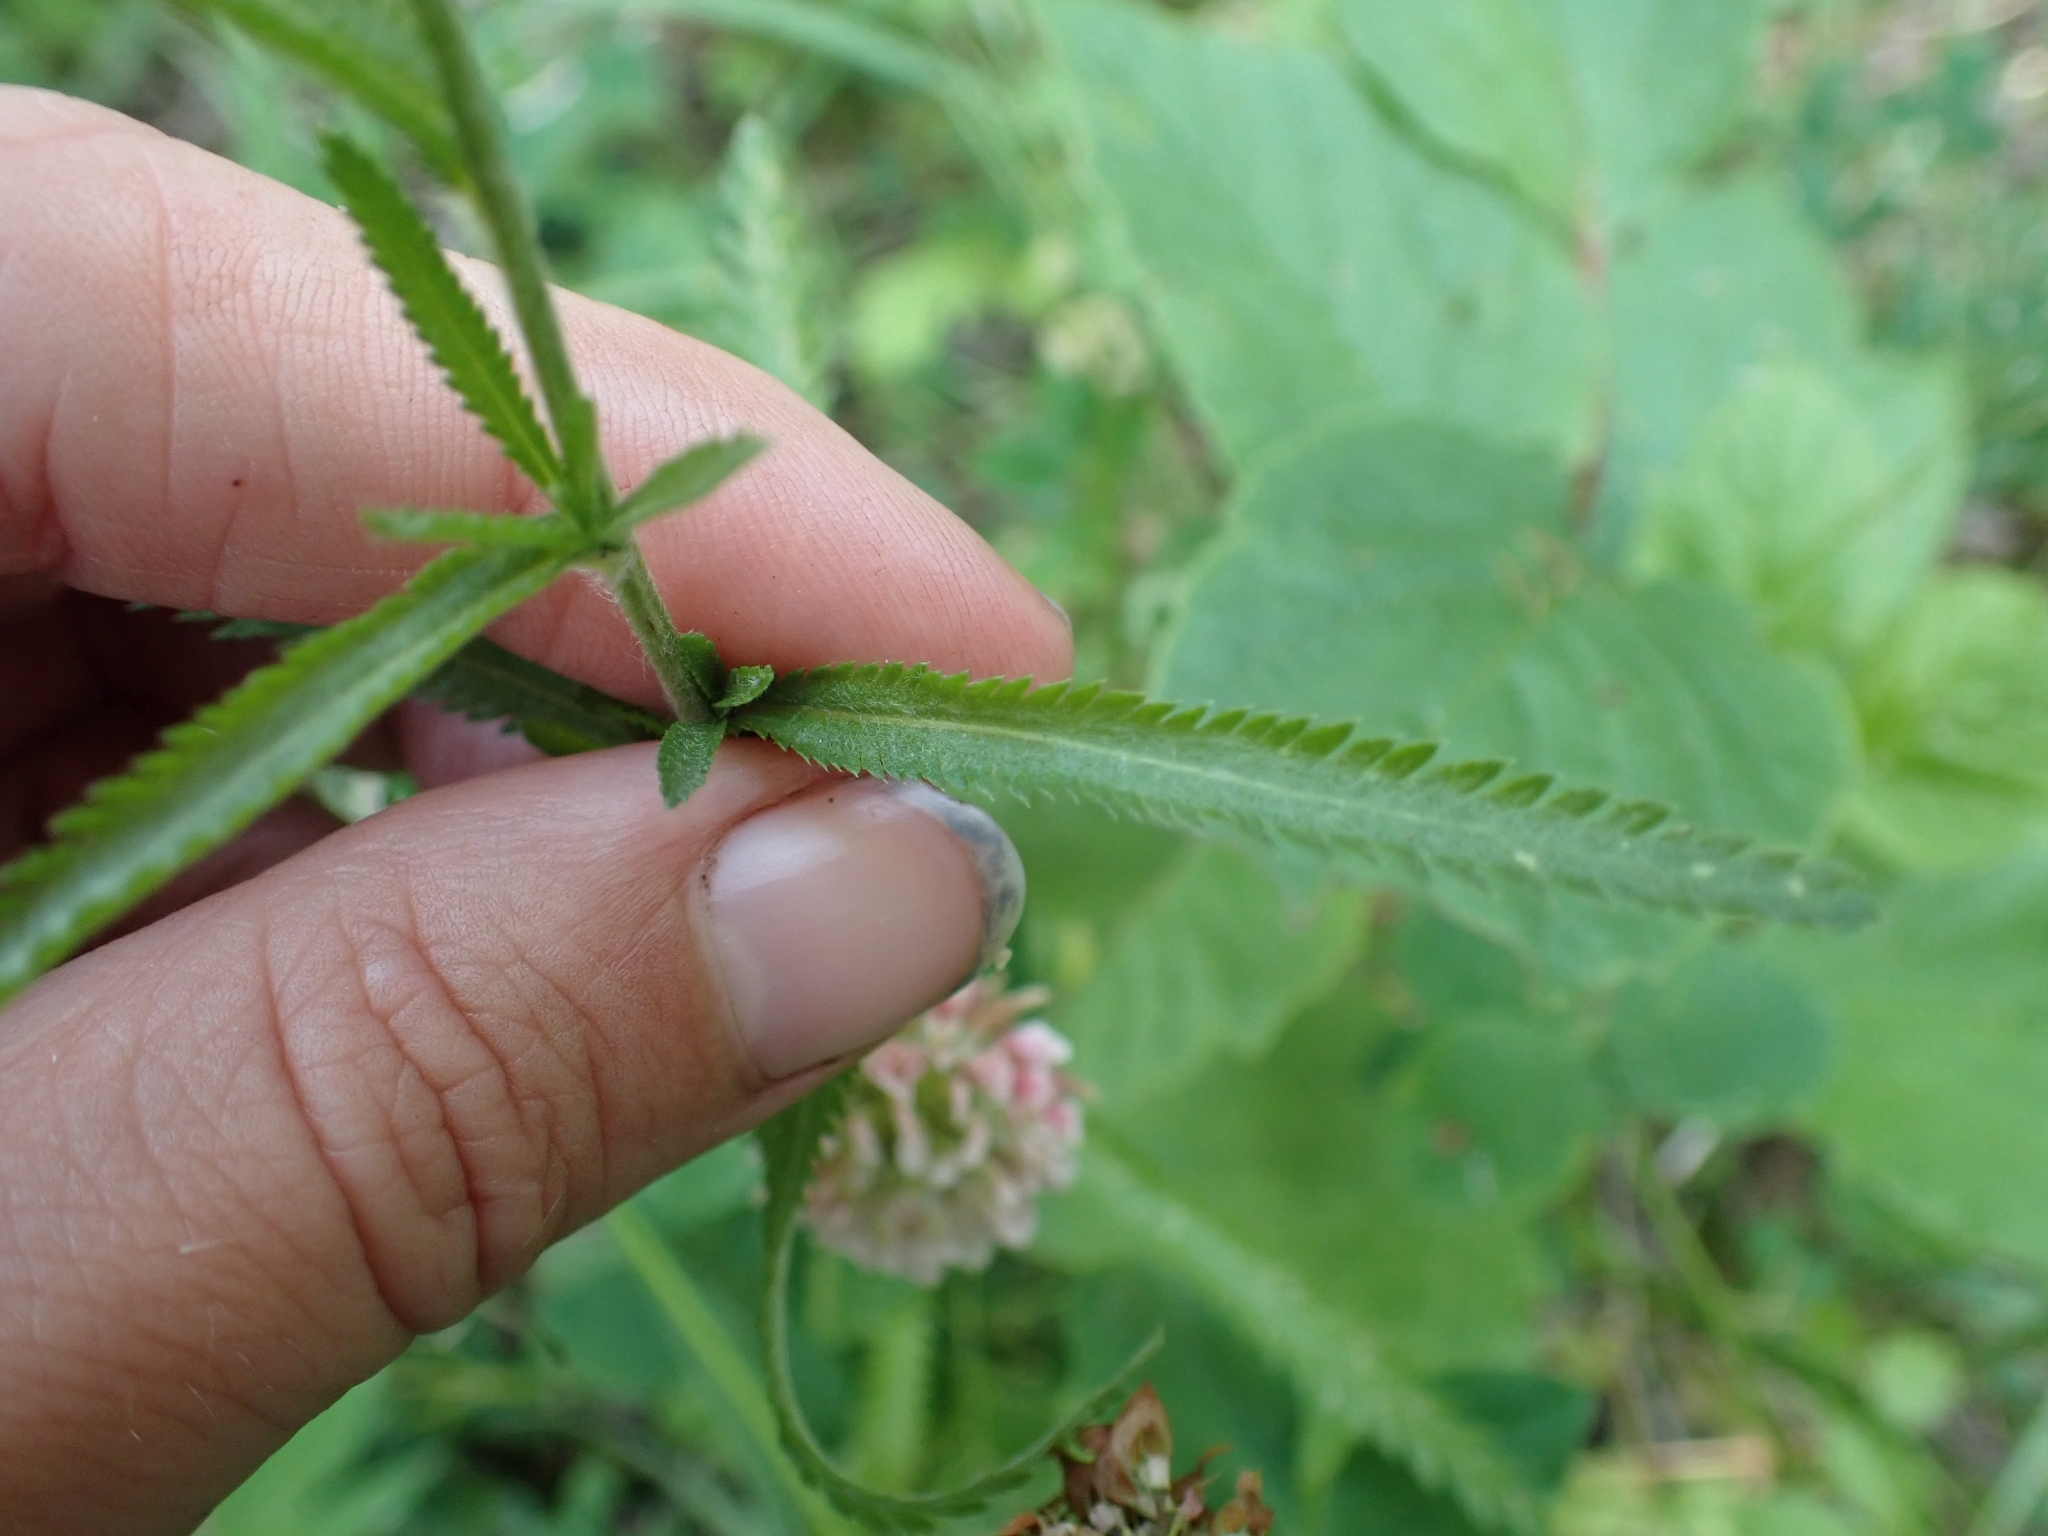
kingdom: Plantae
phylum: Tracheophyta
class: Magnoliopsida
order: Asterales
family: Asteraceae
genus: Achillea
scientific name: Achillea alpina
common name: Siberian yarrow
